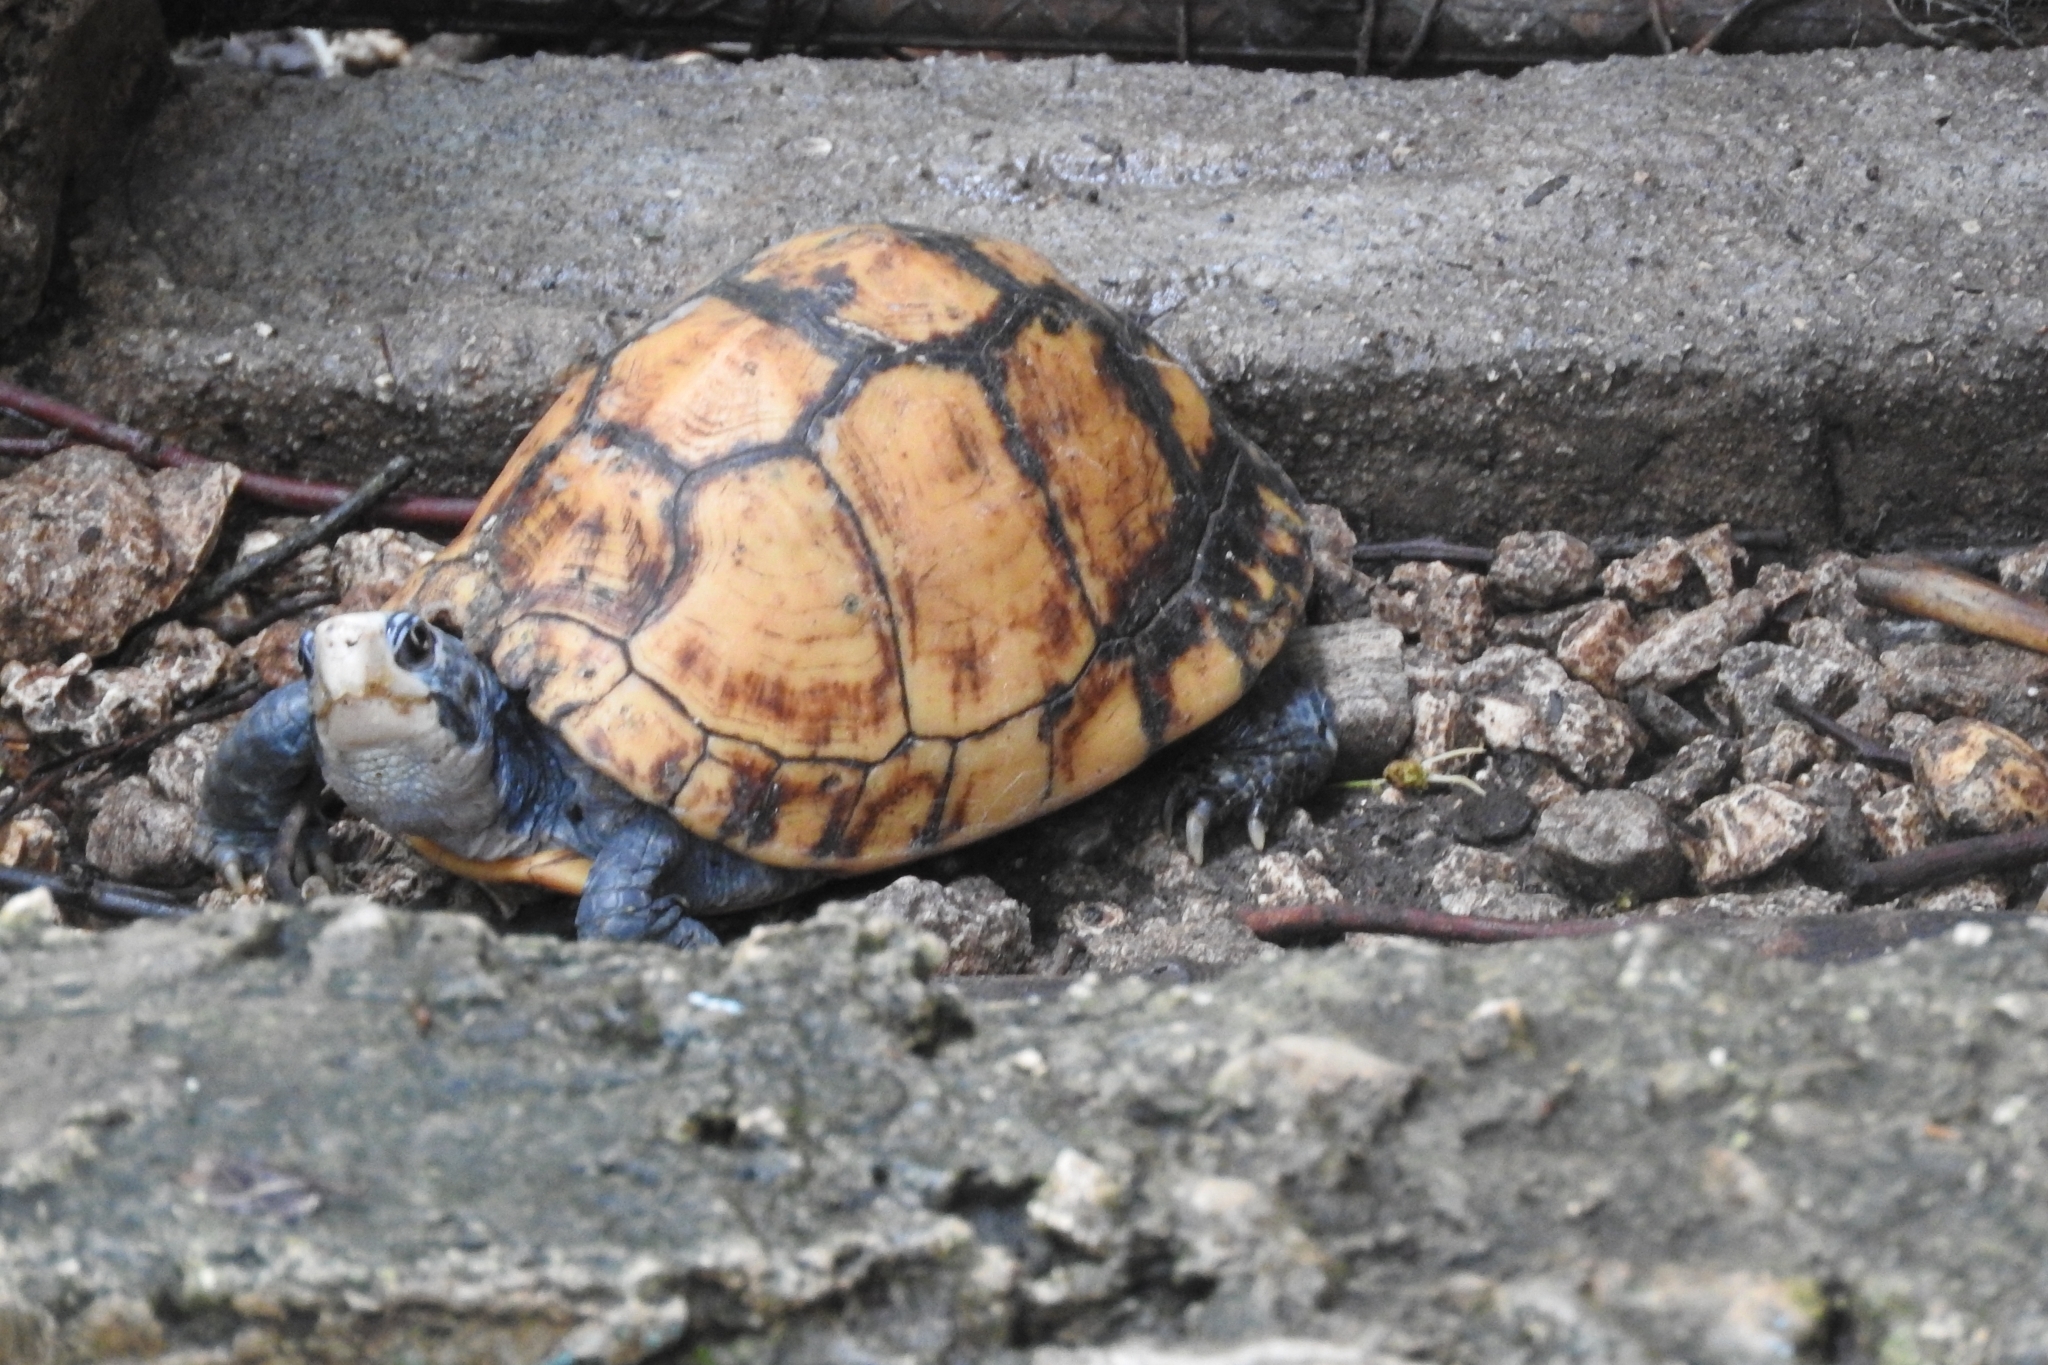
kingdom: Animalia
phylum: Chordata
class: Testudines
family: Emydidae
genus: Terrapene
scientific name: Terrapene yucatana
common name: Yucatan box turtle
